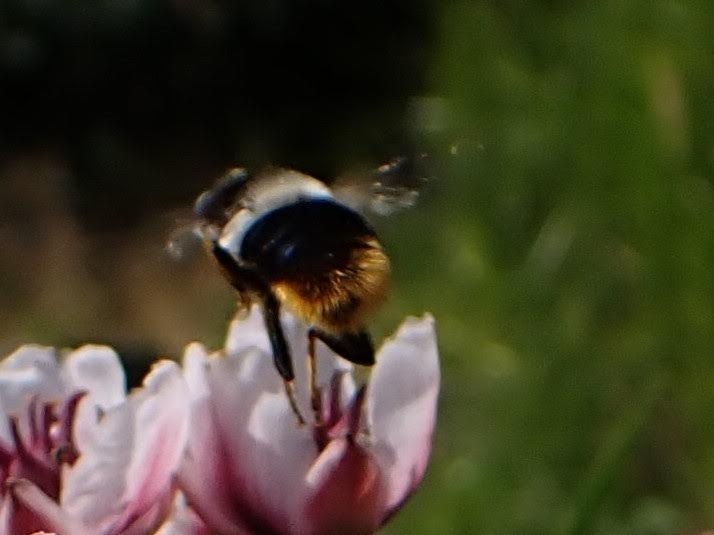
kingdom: Animalia
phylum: Arthropoda
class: Insecta
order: Diptera
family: Syrphidae
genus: Eristalis
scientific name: Eristalis oestracea
